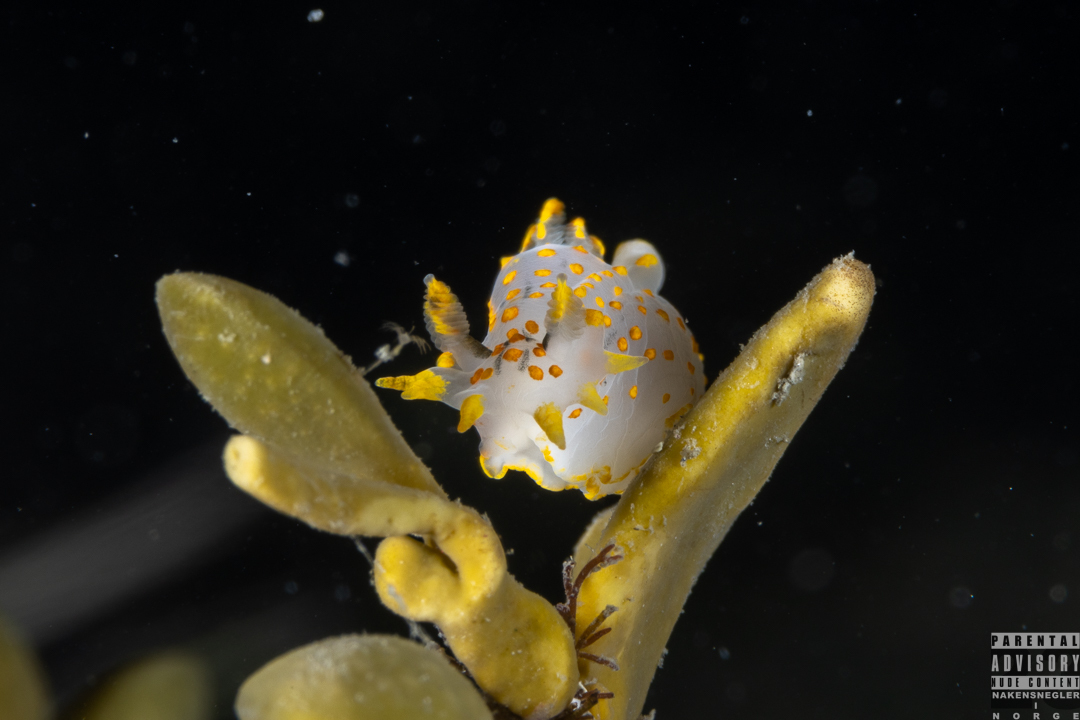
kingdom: Animalia
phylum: Mollusca
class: Gastropoda
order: Nudibranchia
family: Polyceridae
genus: Polycera
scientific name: Polycera quadrilineata
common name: Four-striped polycera
